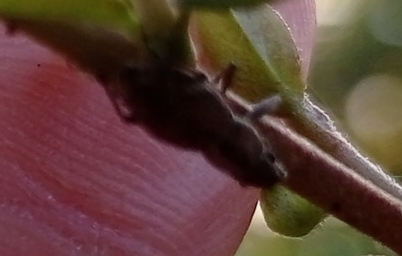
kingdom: Animalia
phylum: Arthropoda
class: Insecta
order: Coleoptera
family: Curculionidae
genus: Naupactus
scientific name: Naupactus cervinus
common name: Fuller rose beetle
